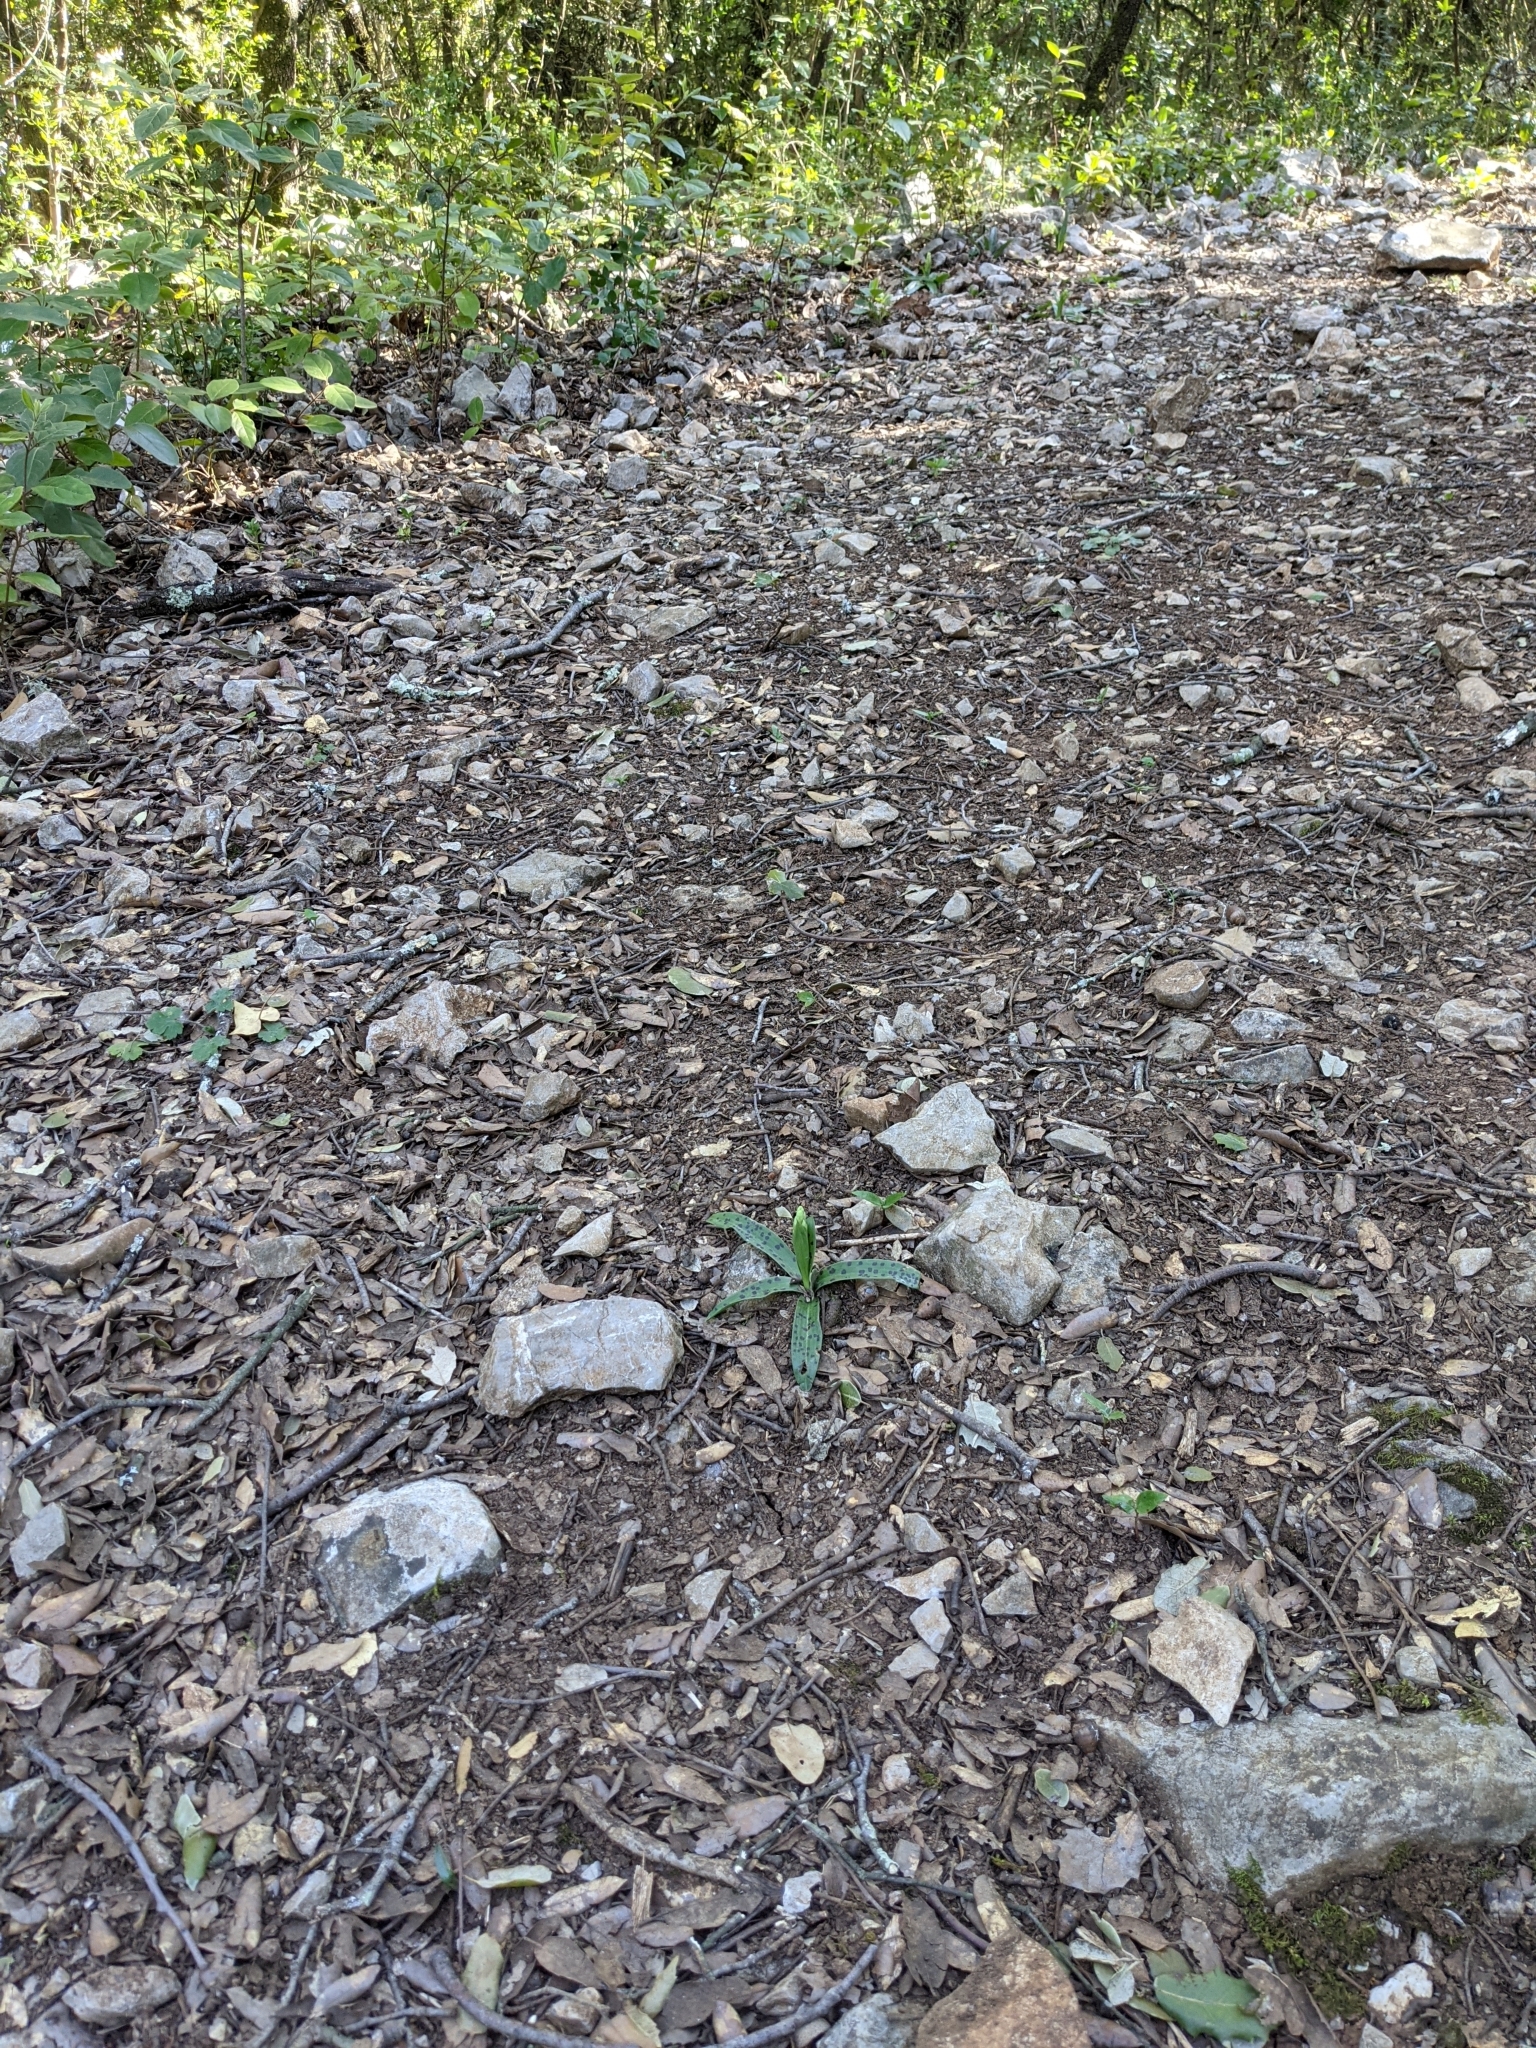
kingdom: Plantae
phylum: Tracheophyta
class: Liliopsida
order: Asparagales
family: Orchidaceae
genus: Orchis
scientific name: Orchis provincialis
